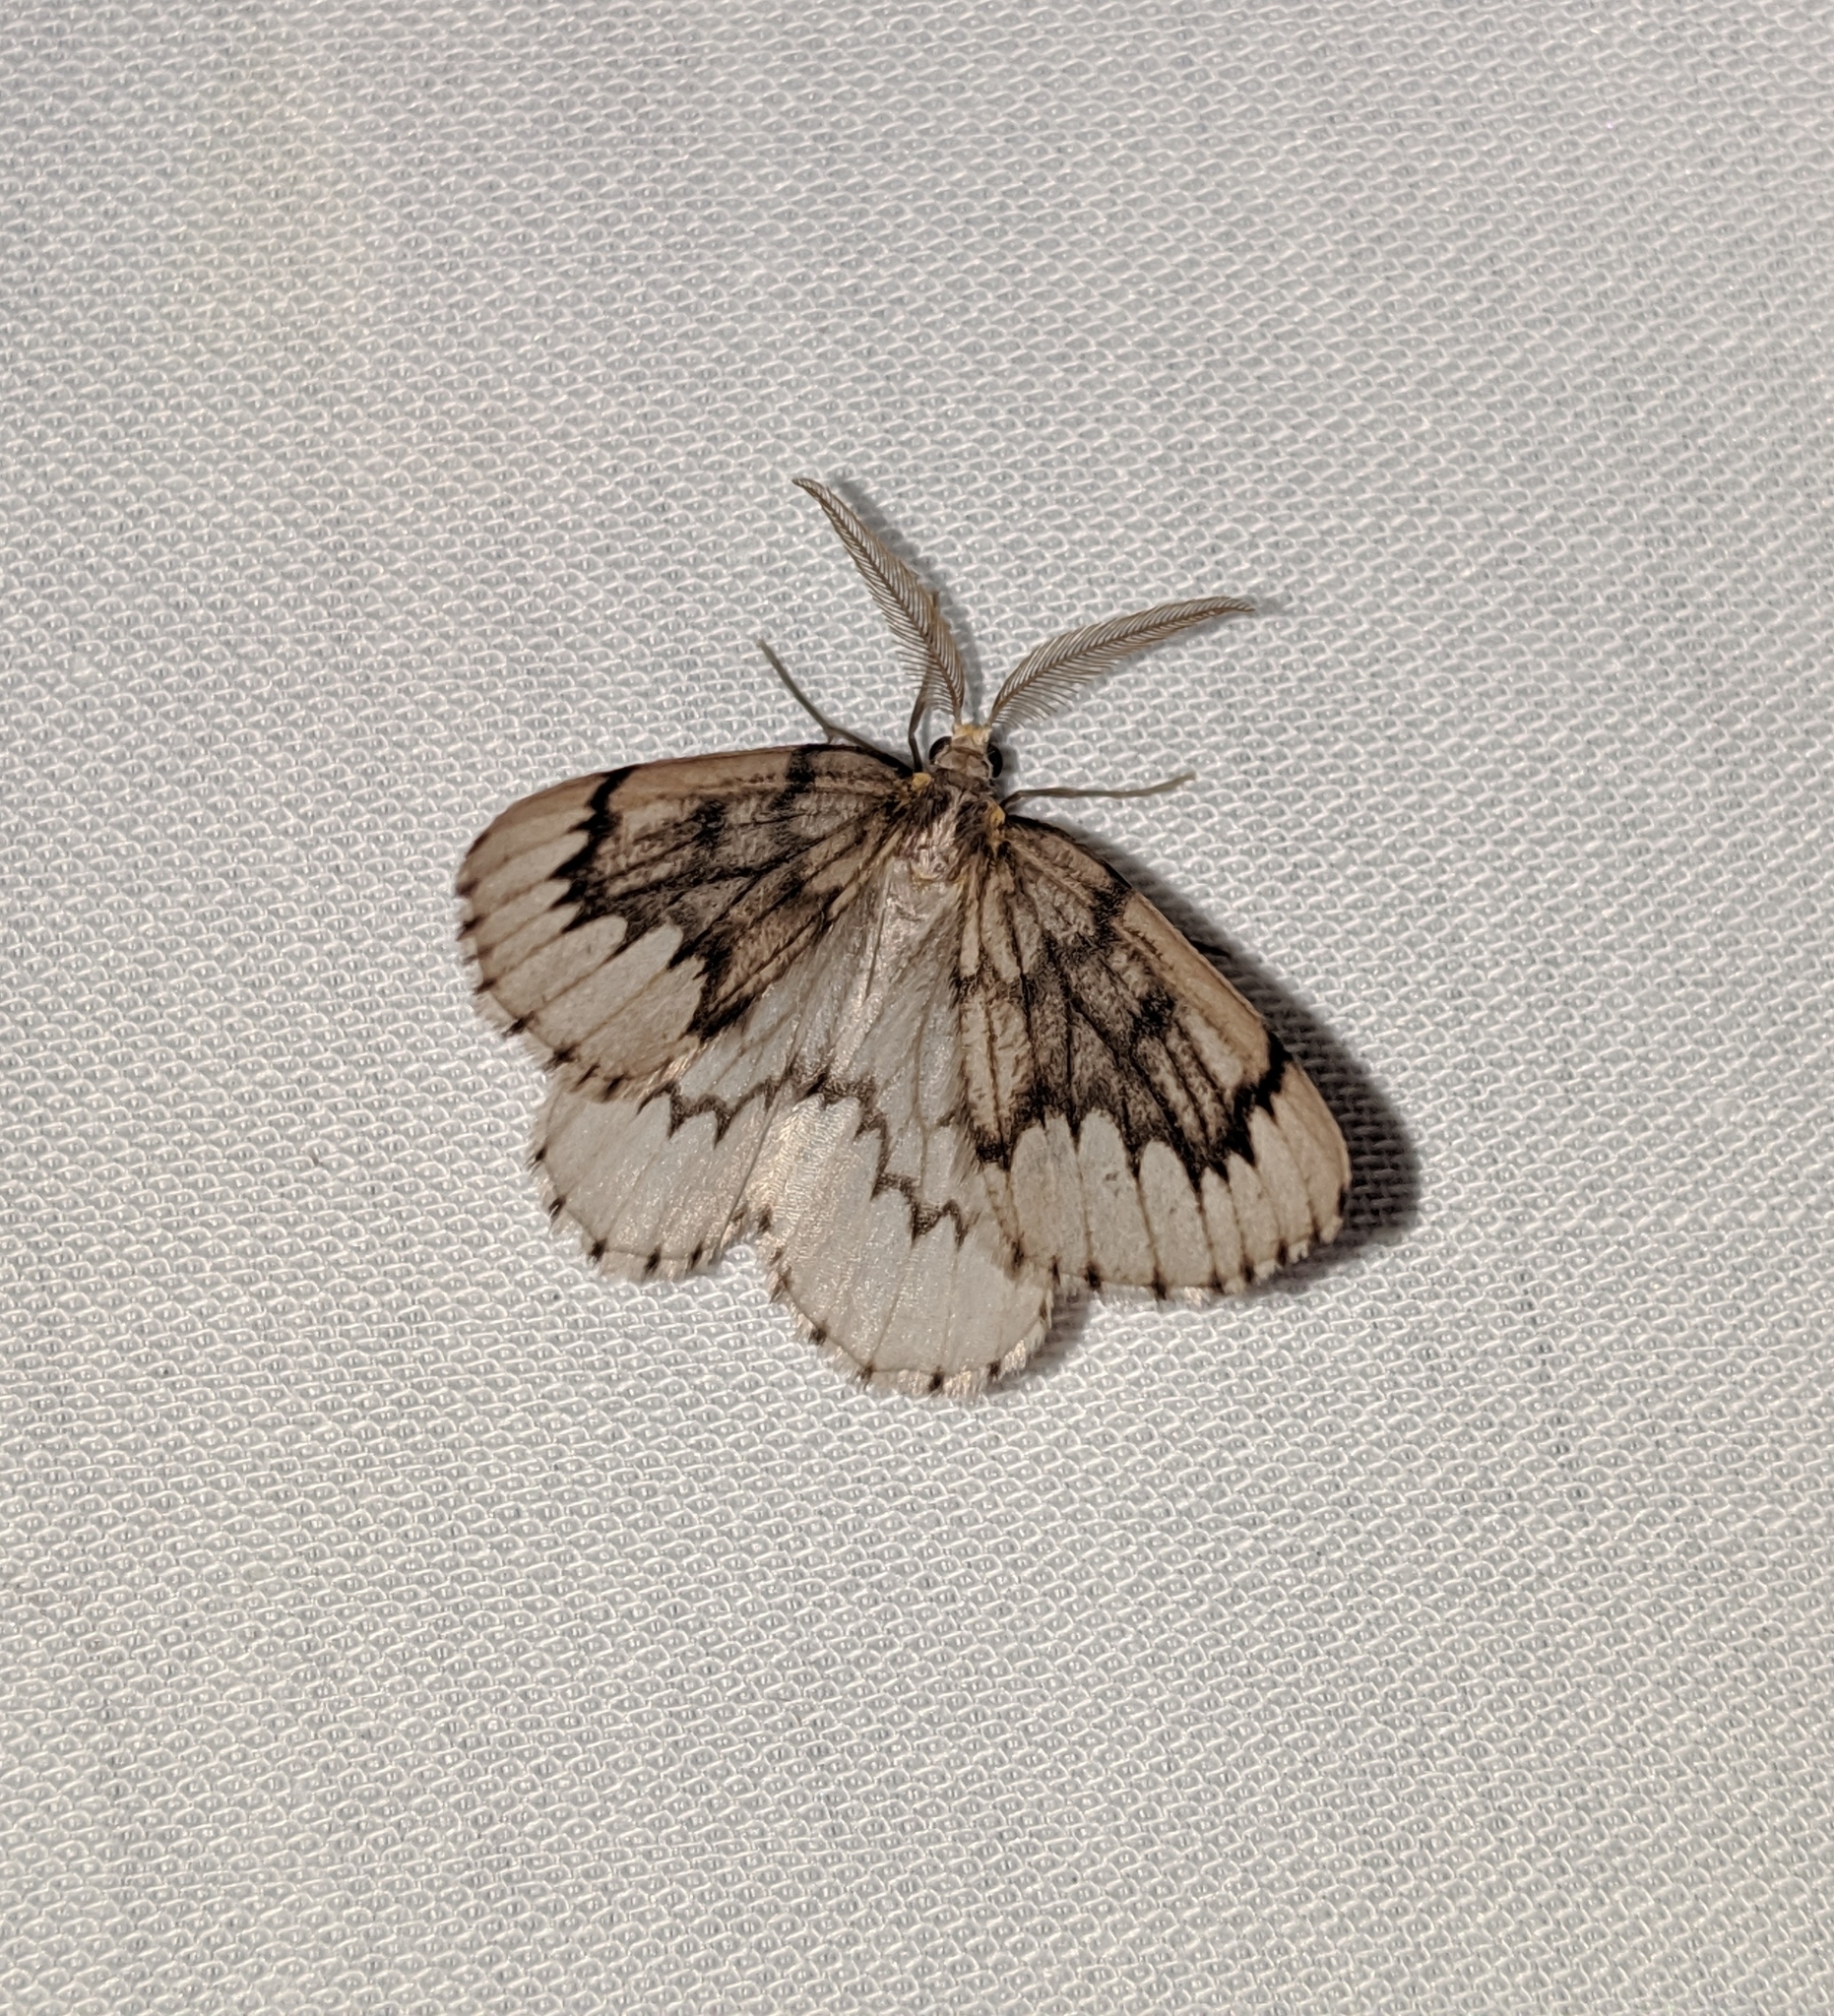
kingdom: Animalia
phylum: Arthropoda
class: Insecta
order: Lepidoptera
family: Geometridae
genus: Nepytia
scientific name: Nepytia phantasmaria
